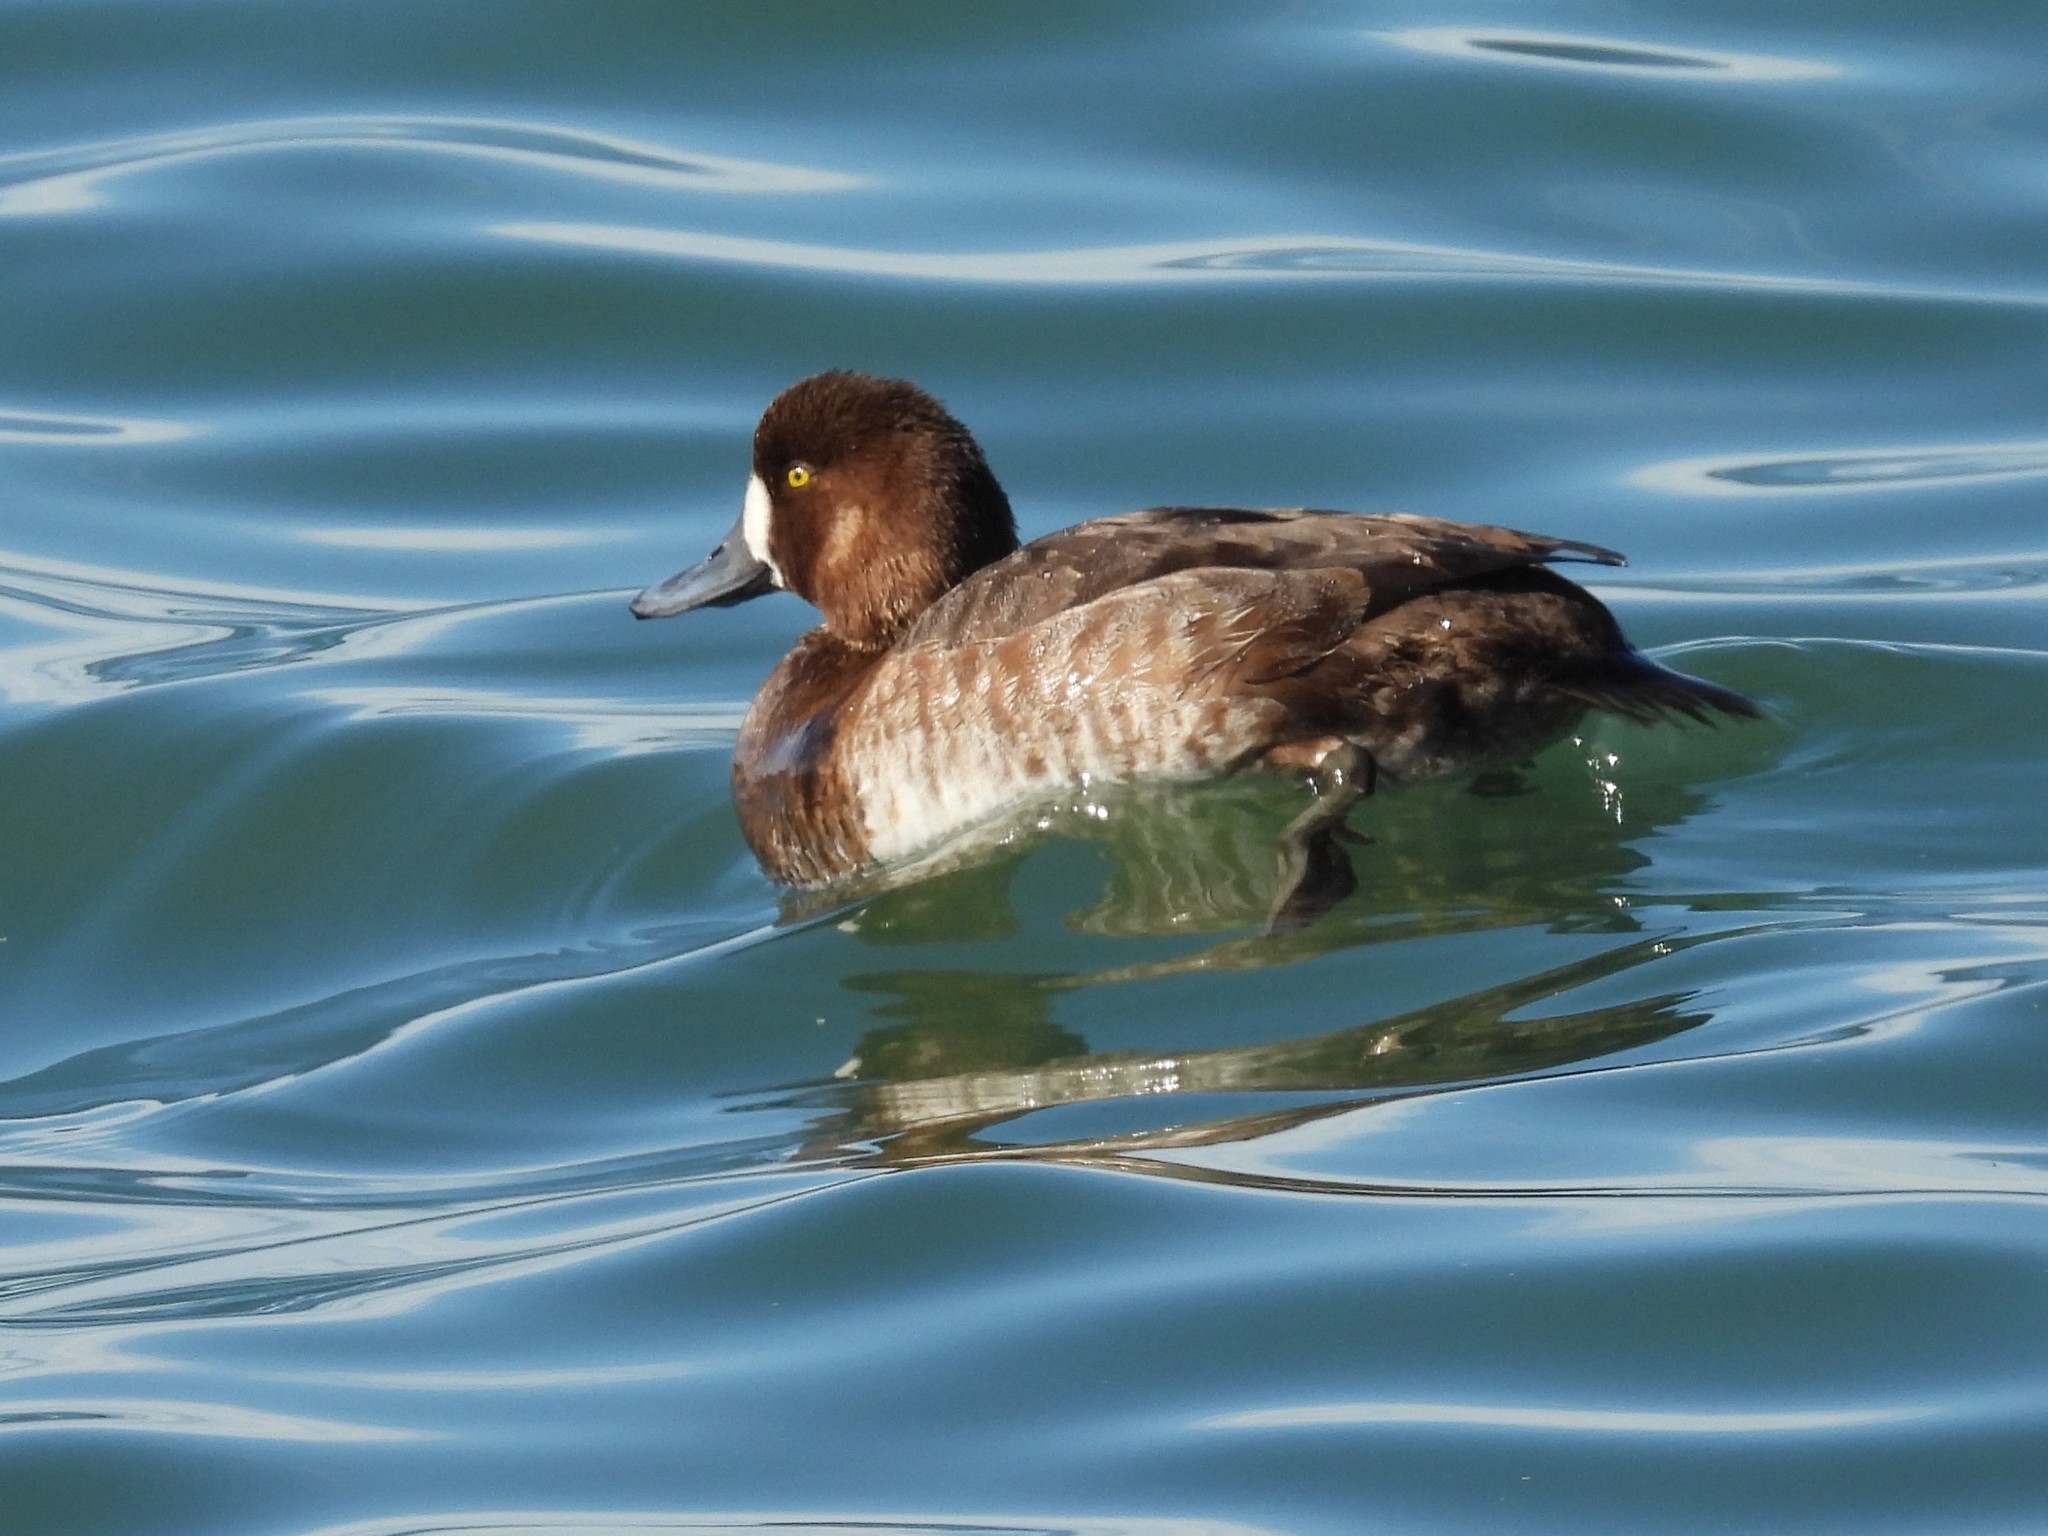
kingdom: Animalia
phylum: Chordata
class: Aves
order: Anseriformes
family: Anatidae
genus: Aythya
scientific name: Aythya marila
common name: Greater scaup
